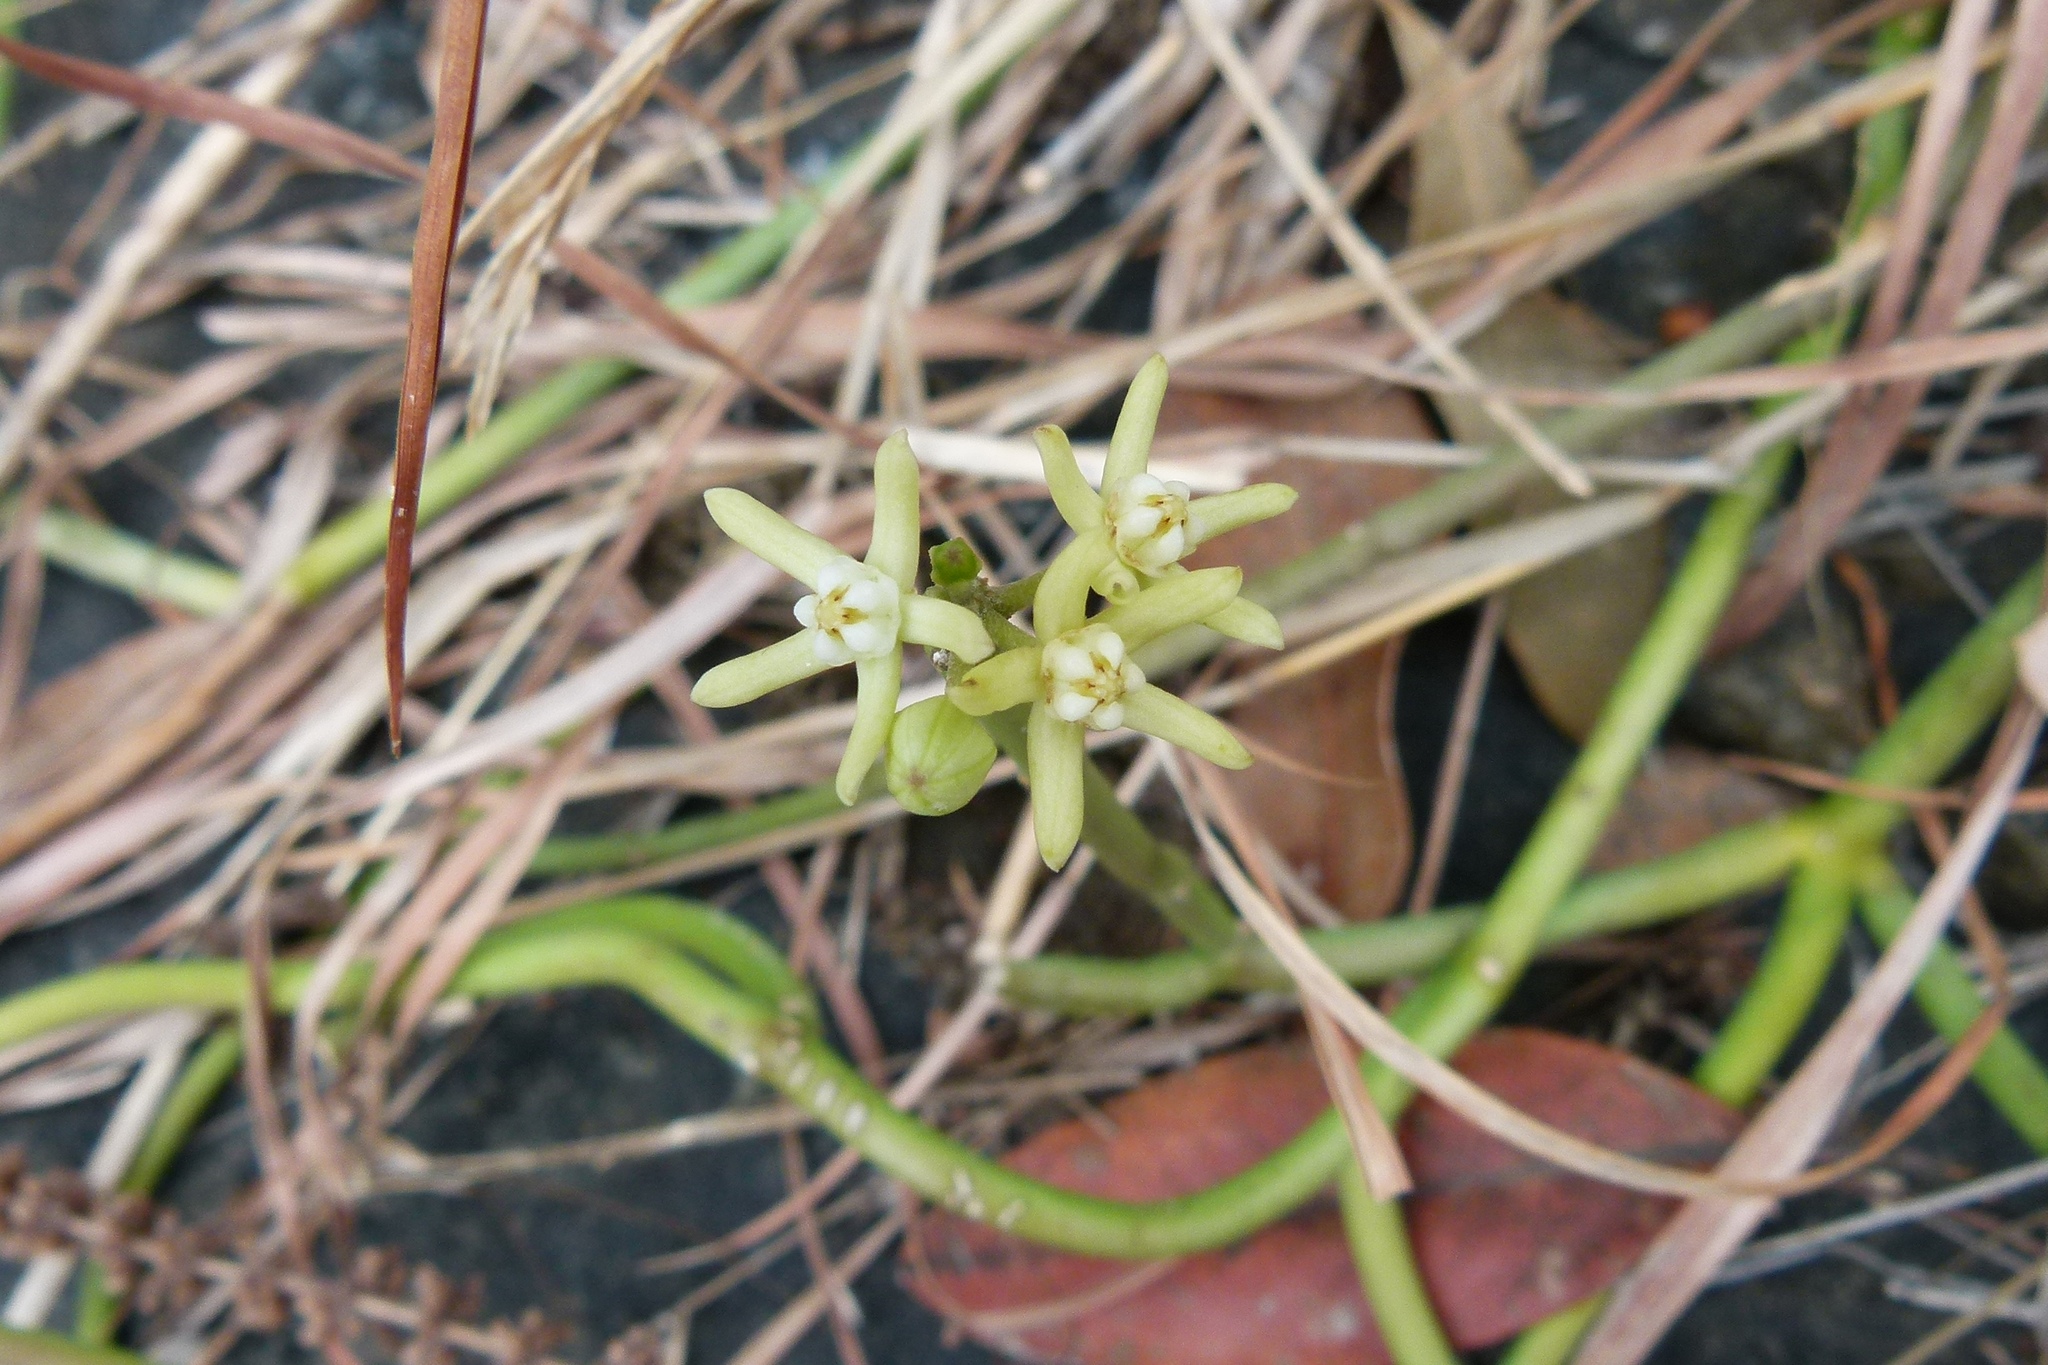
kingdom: Plantae
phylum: Tracheophyta
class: Magnoliopsida
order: Gentianales
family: Apocynaceae
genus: Cynanchum
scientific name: Cynanchum viminale
